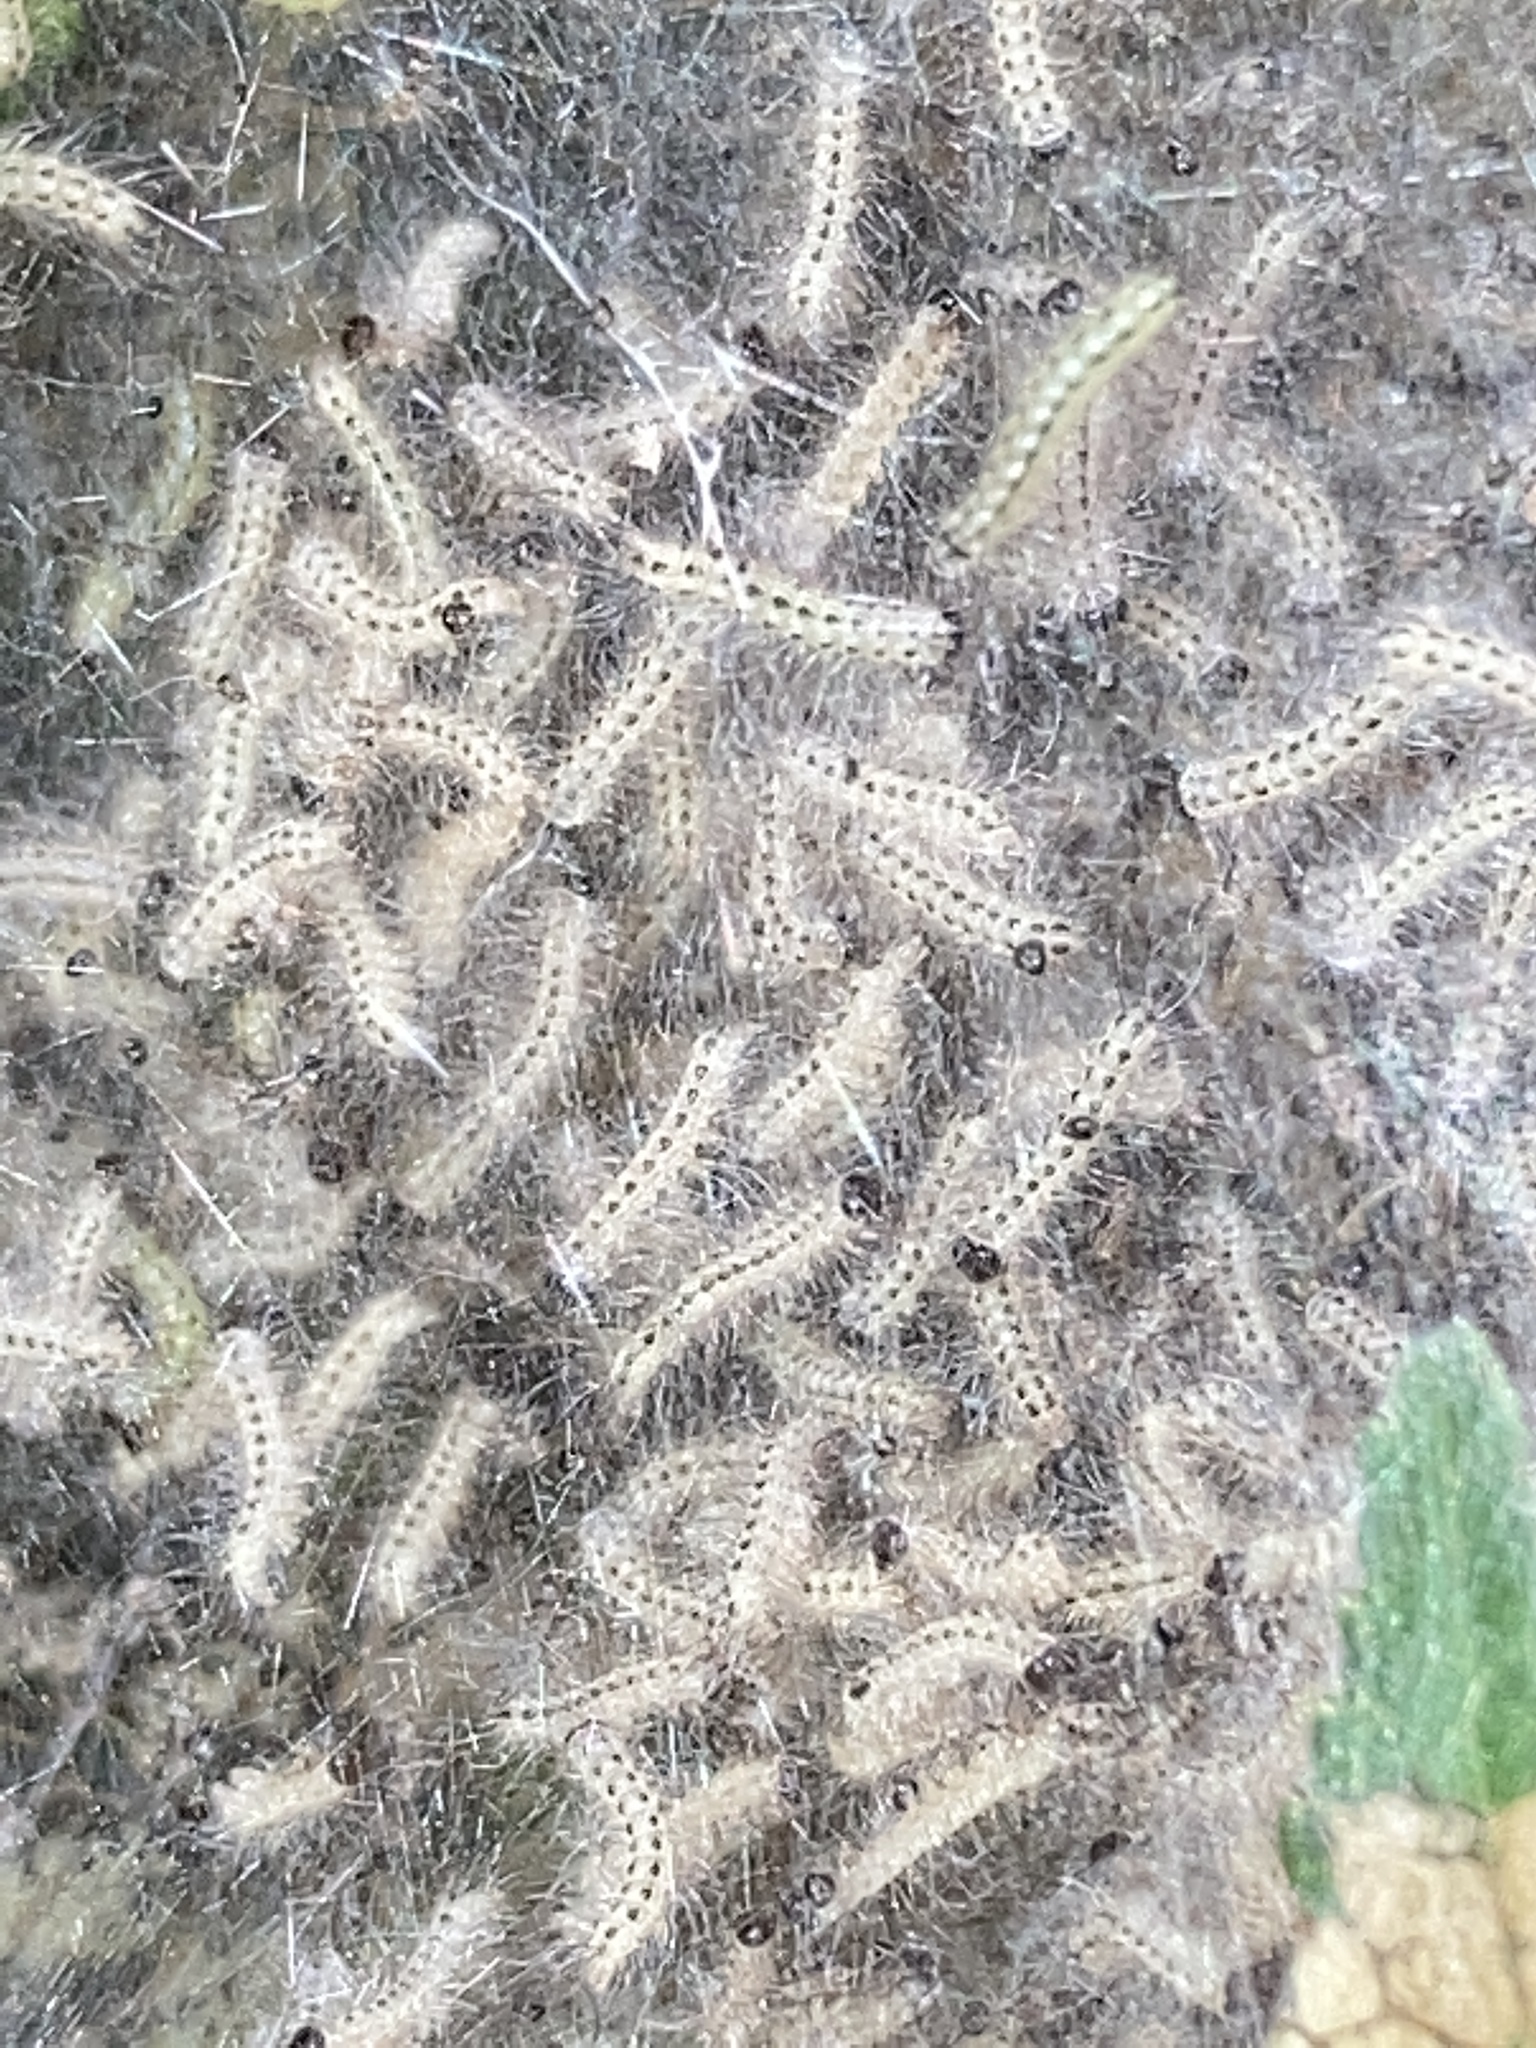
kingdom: Animalia
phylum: Arthropoda
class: Insecta
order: Lepidoptera
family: Erebidae
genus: Hyphantria
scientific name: Hyphantria cunea
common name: American white moth
